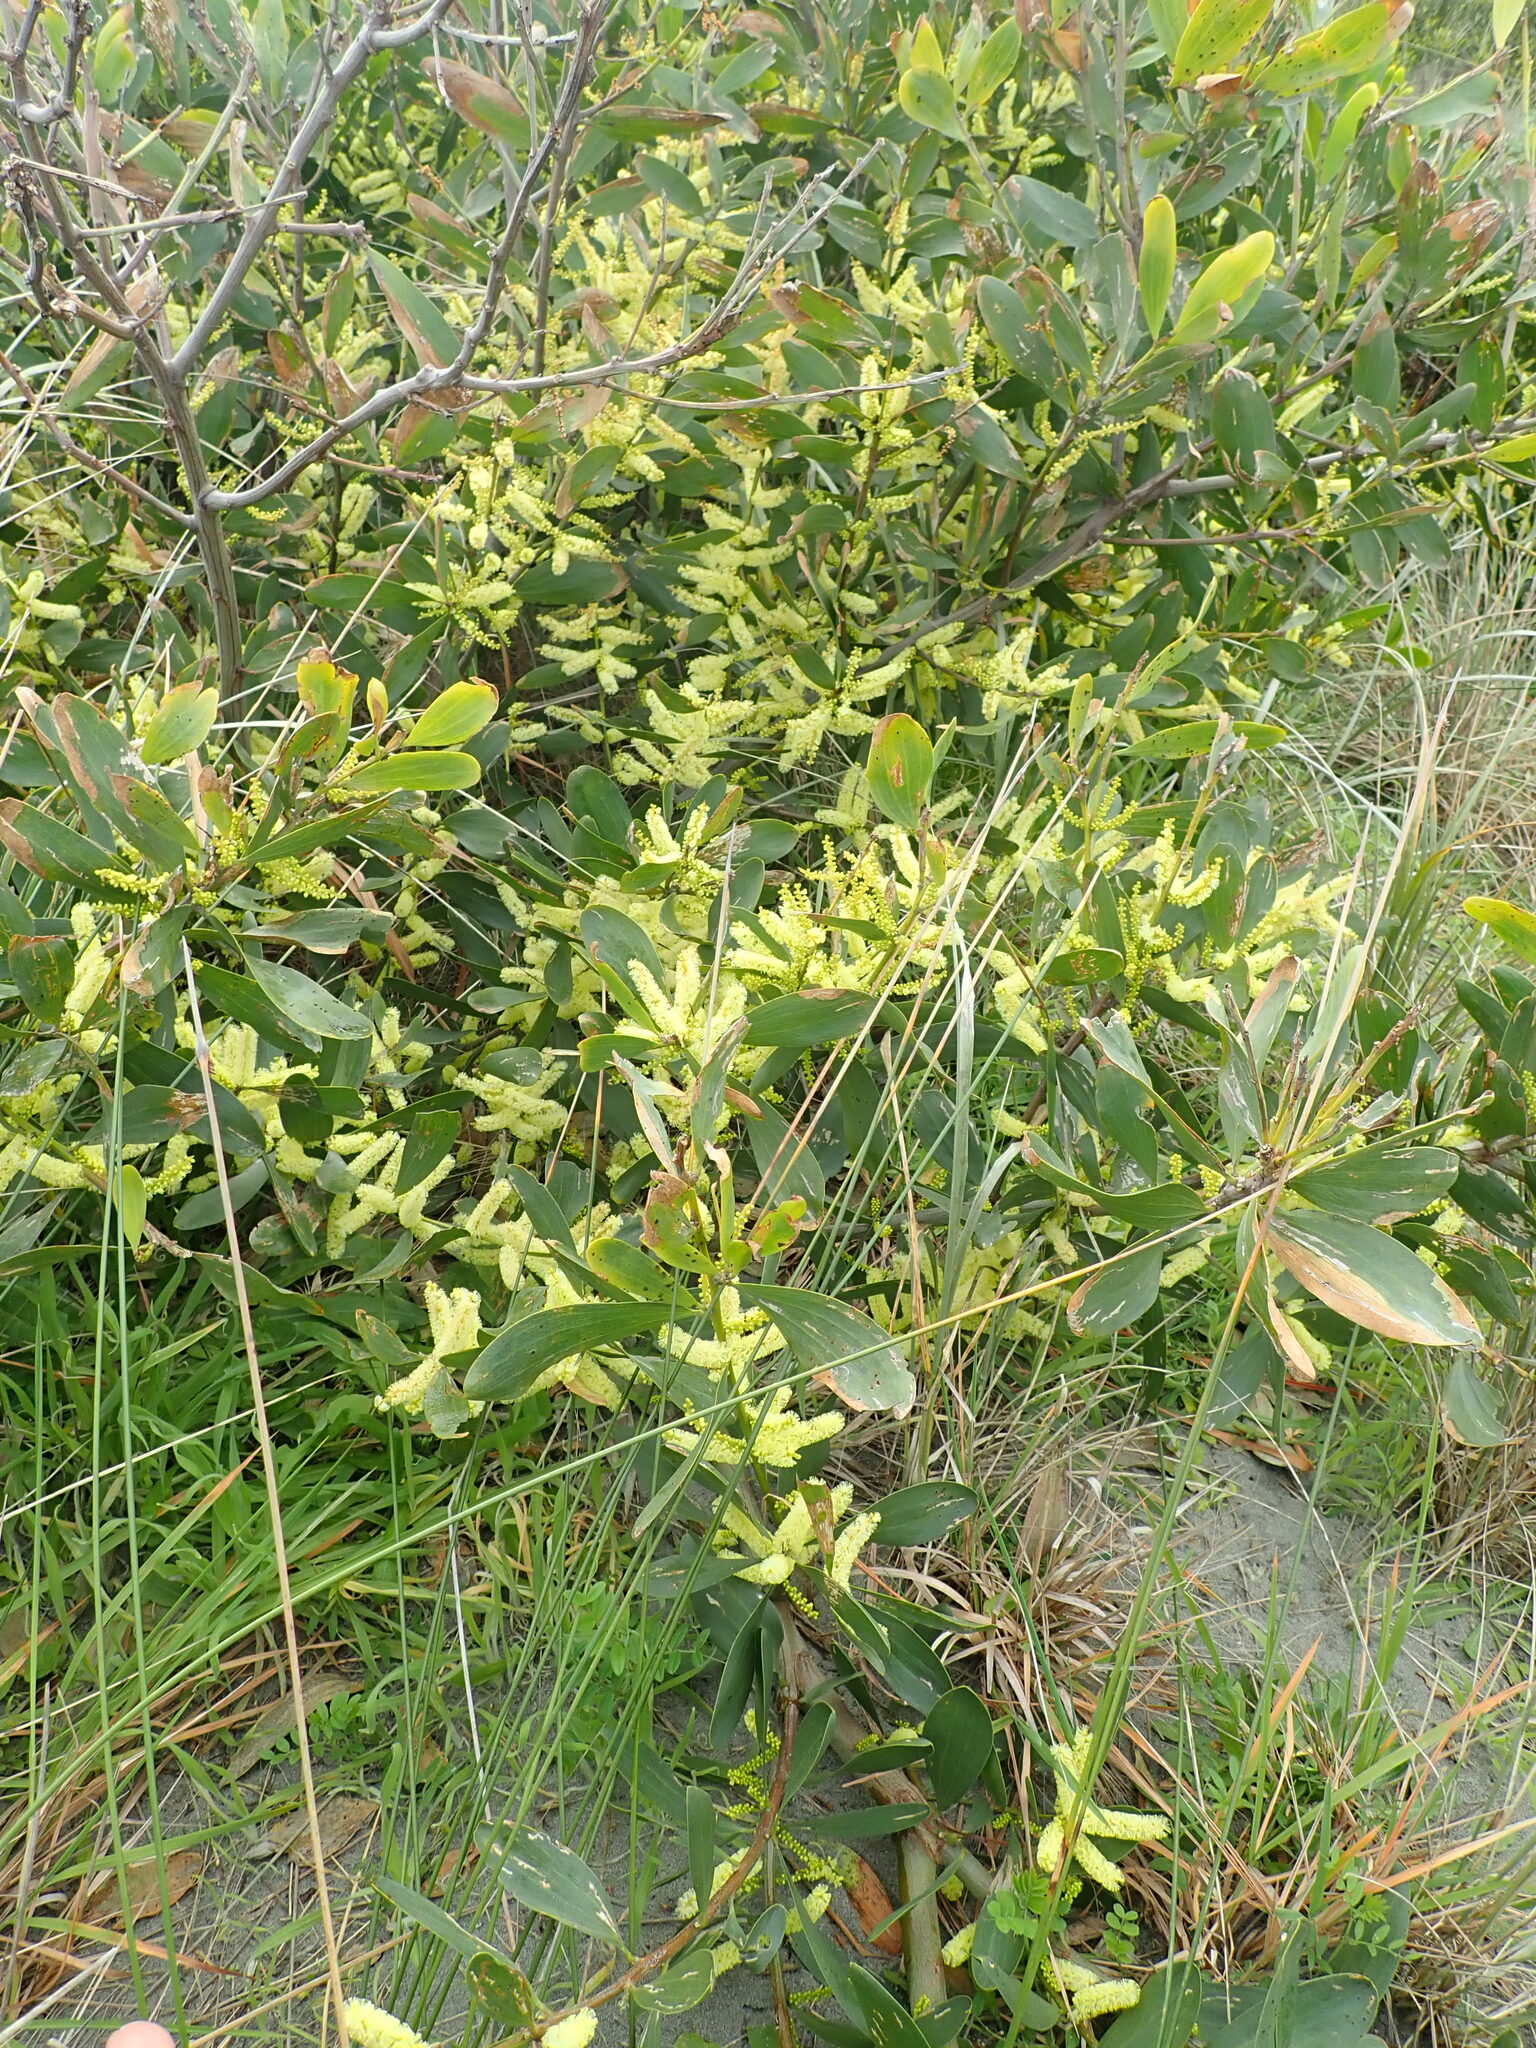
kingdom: Plantae
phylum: Tracheophyta
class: Magnoliopsida
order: Fabales
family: Fabaceae
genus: Acacia
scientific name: Acacia longifolia
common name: Sydney golden wattle
